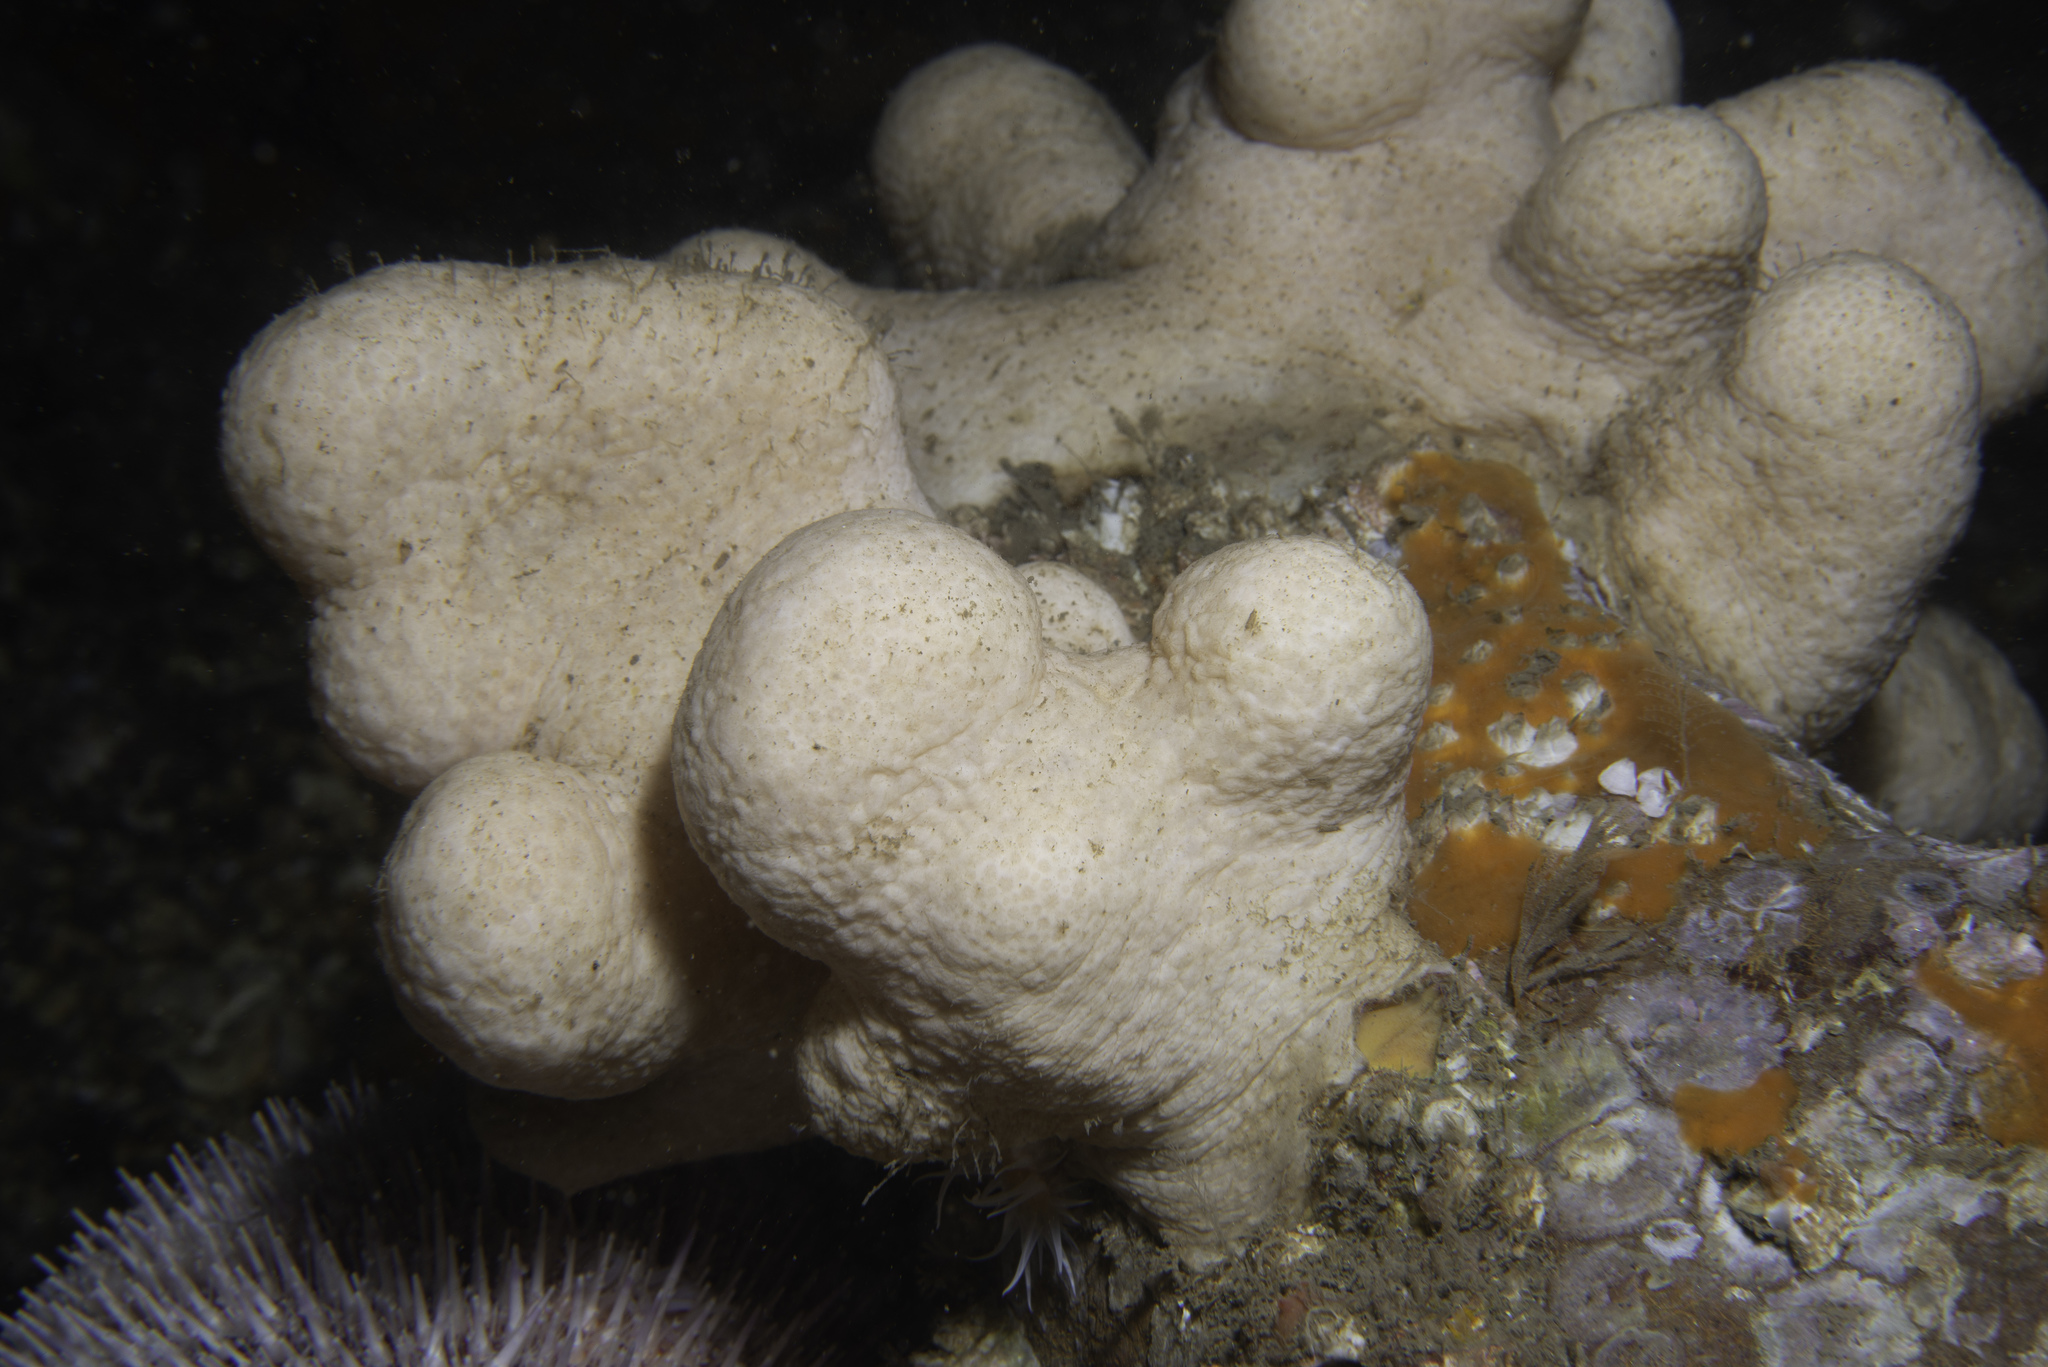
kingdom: Animalia
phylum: Cnidaria
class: Anthozoa
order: Malacalcyonacea
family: Alcyoniidae
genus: Alcyonium
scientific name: Alcyonium digitatum
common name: Dead man's fingers
